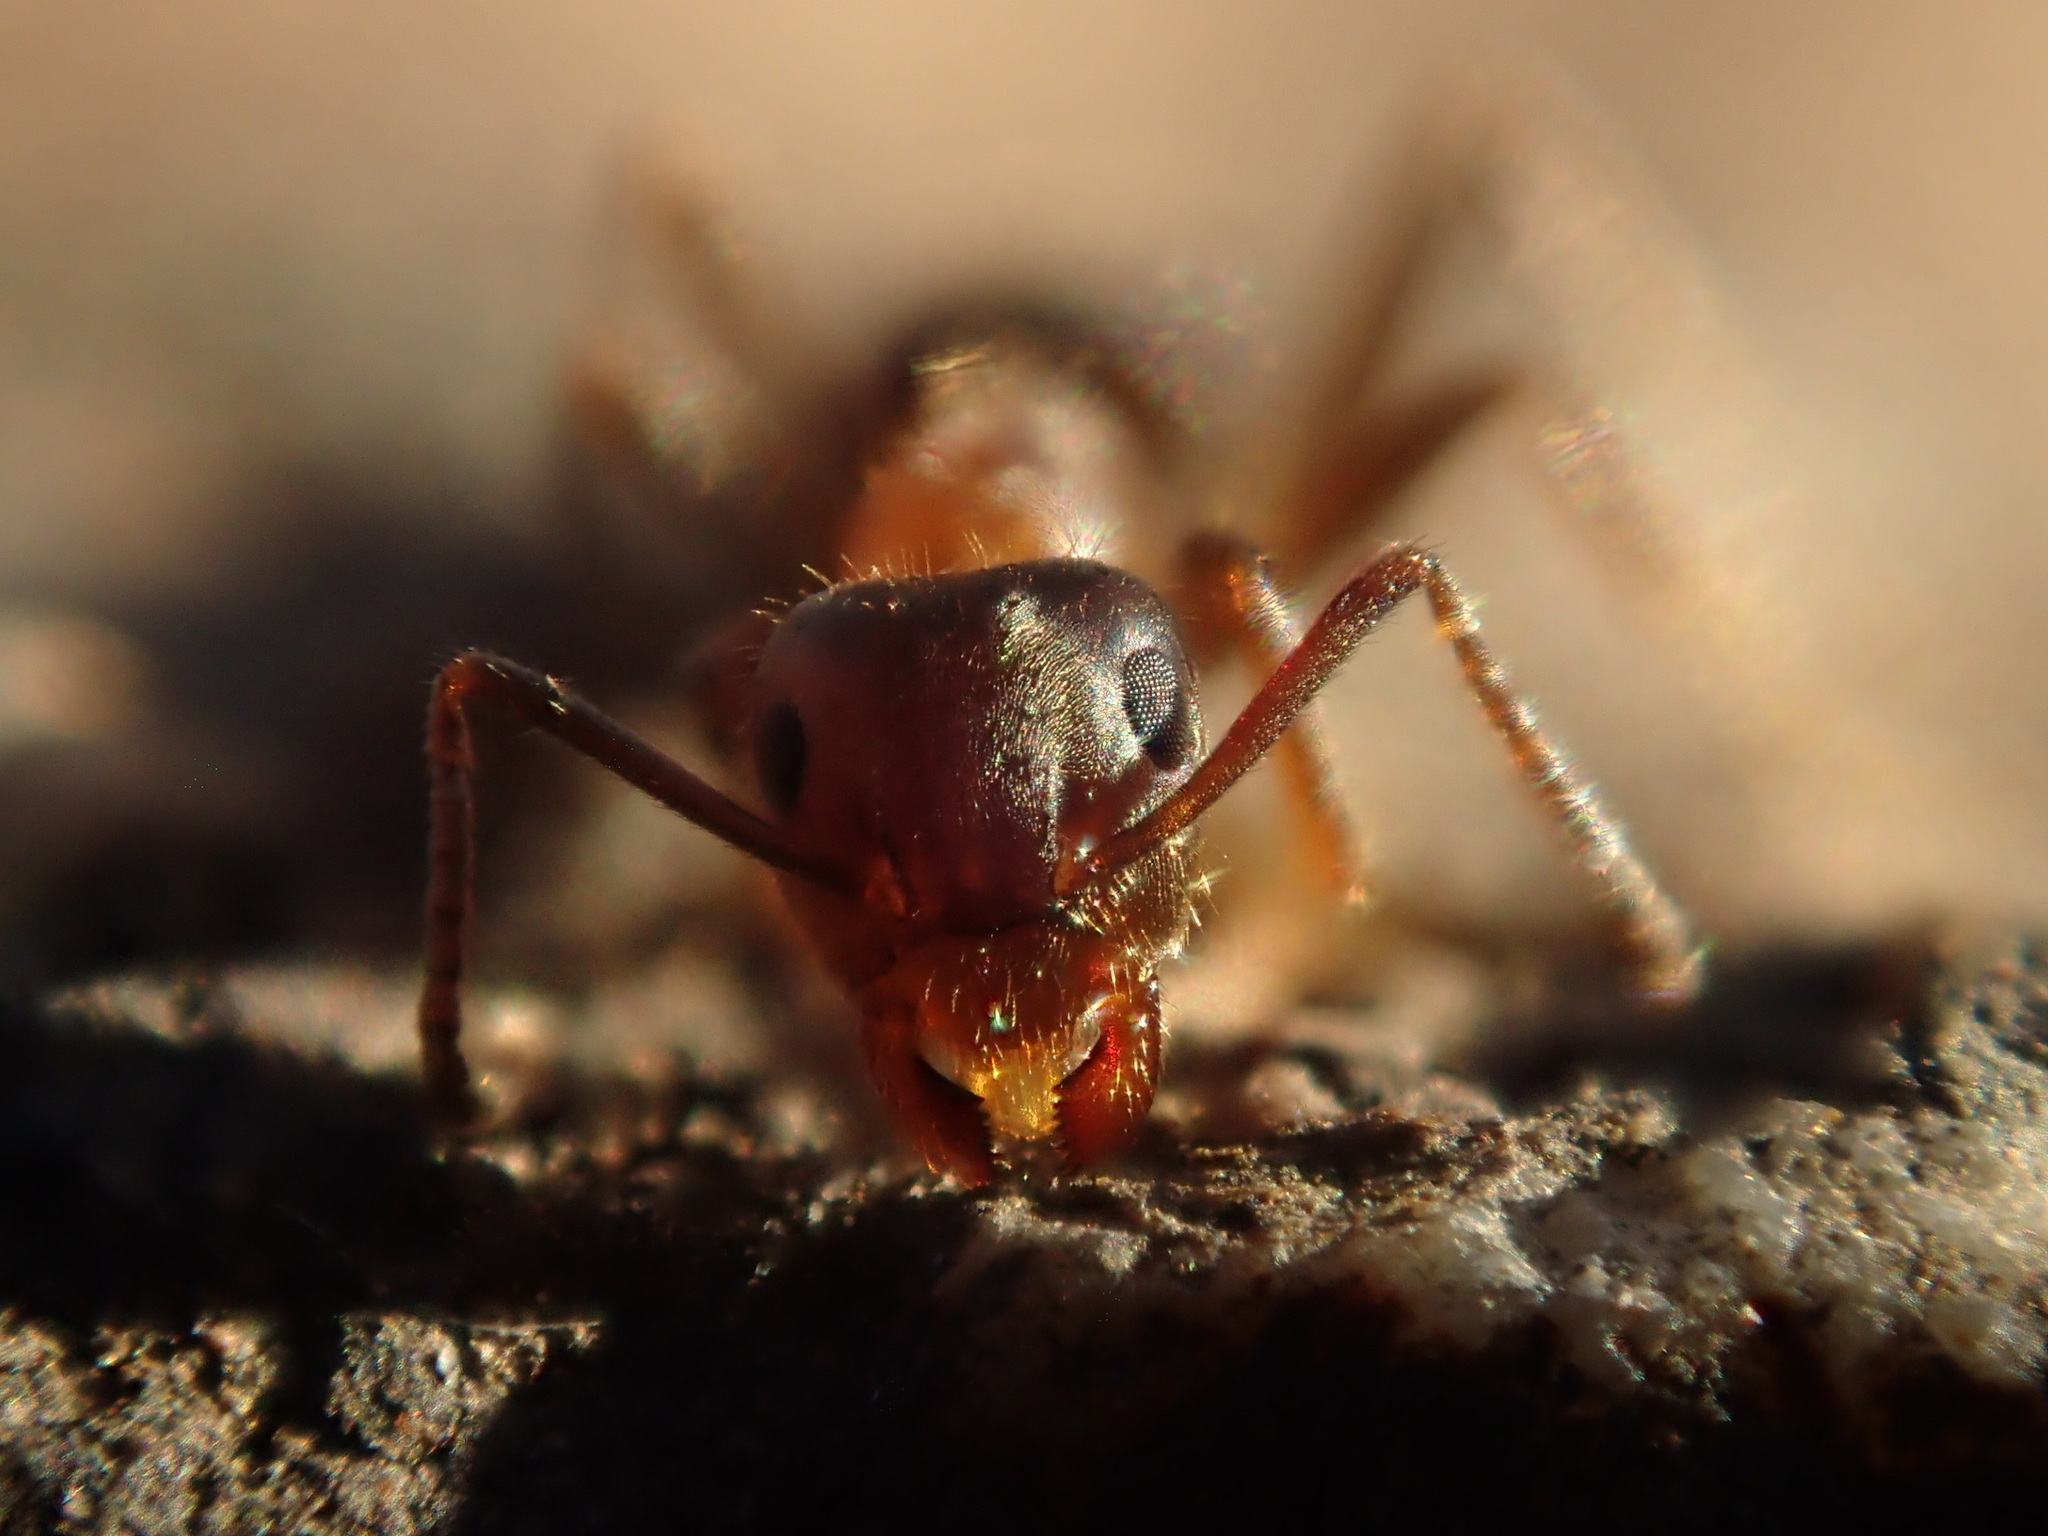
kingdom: Animalia
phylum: Arthropoda
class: Insecta
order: Hymenoptera
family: Formicidae
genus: Lasius
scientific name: Lasius emarginatus
